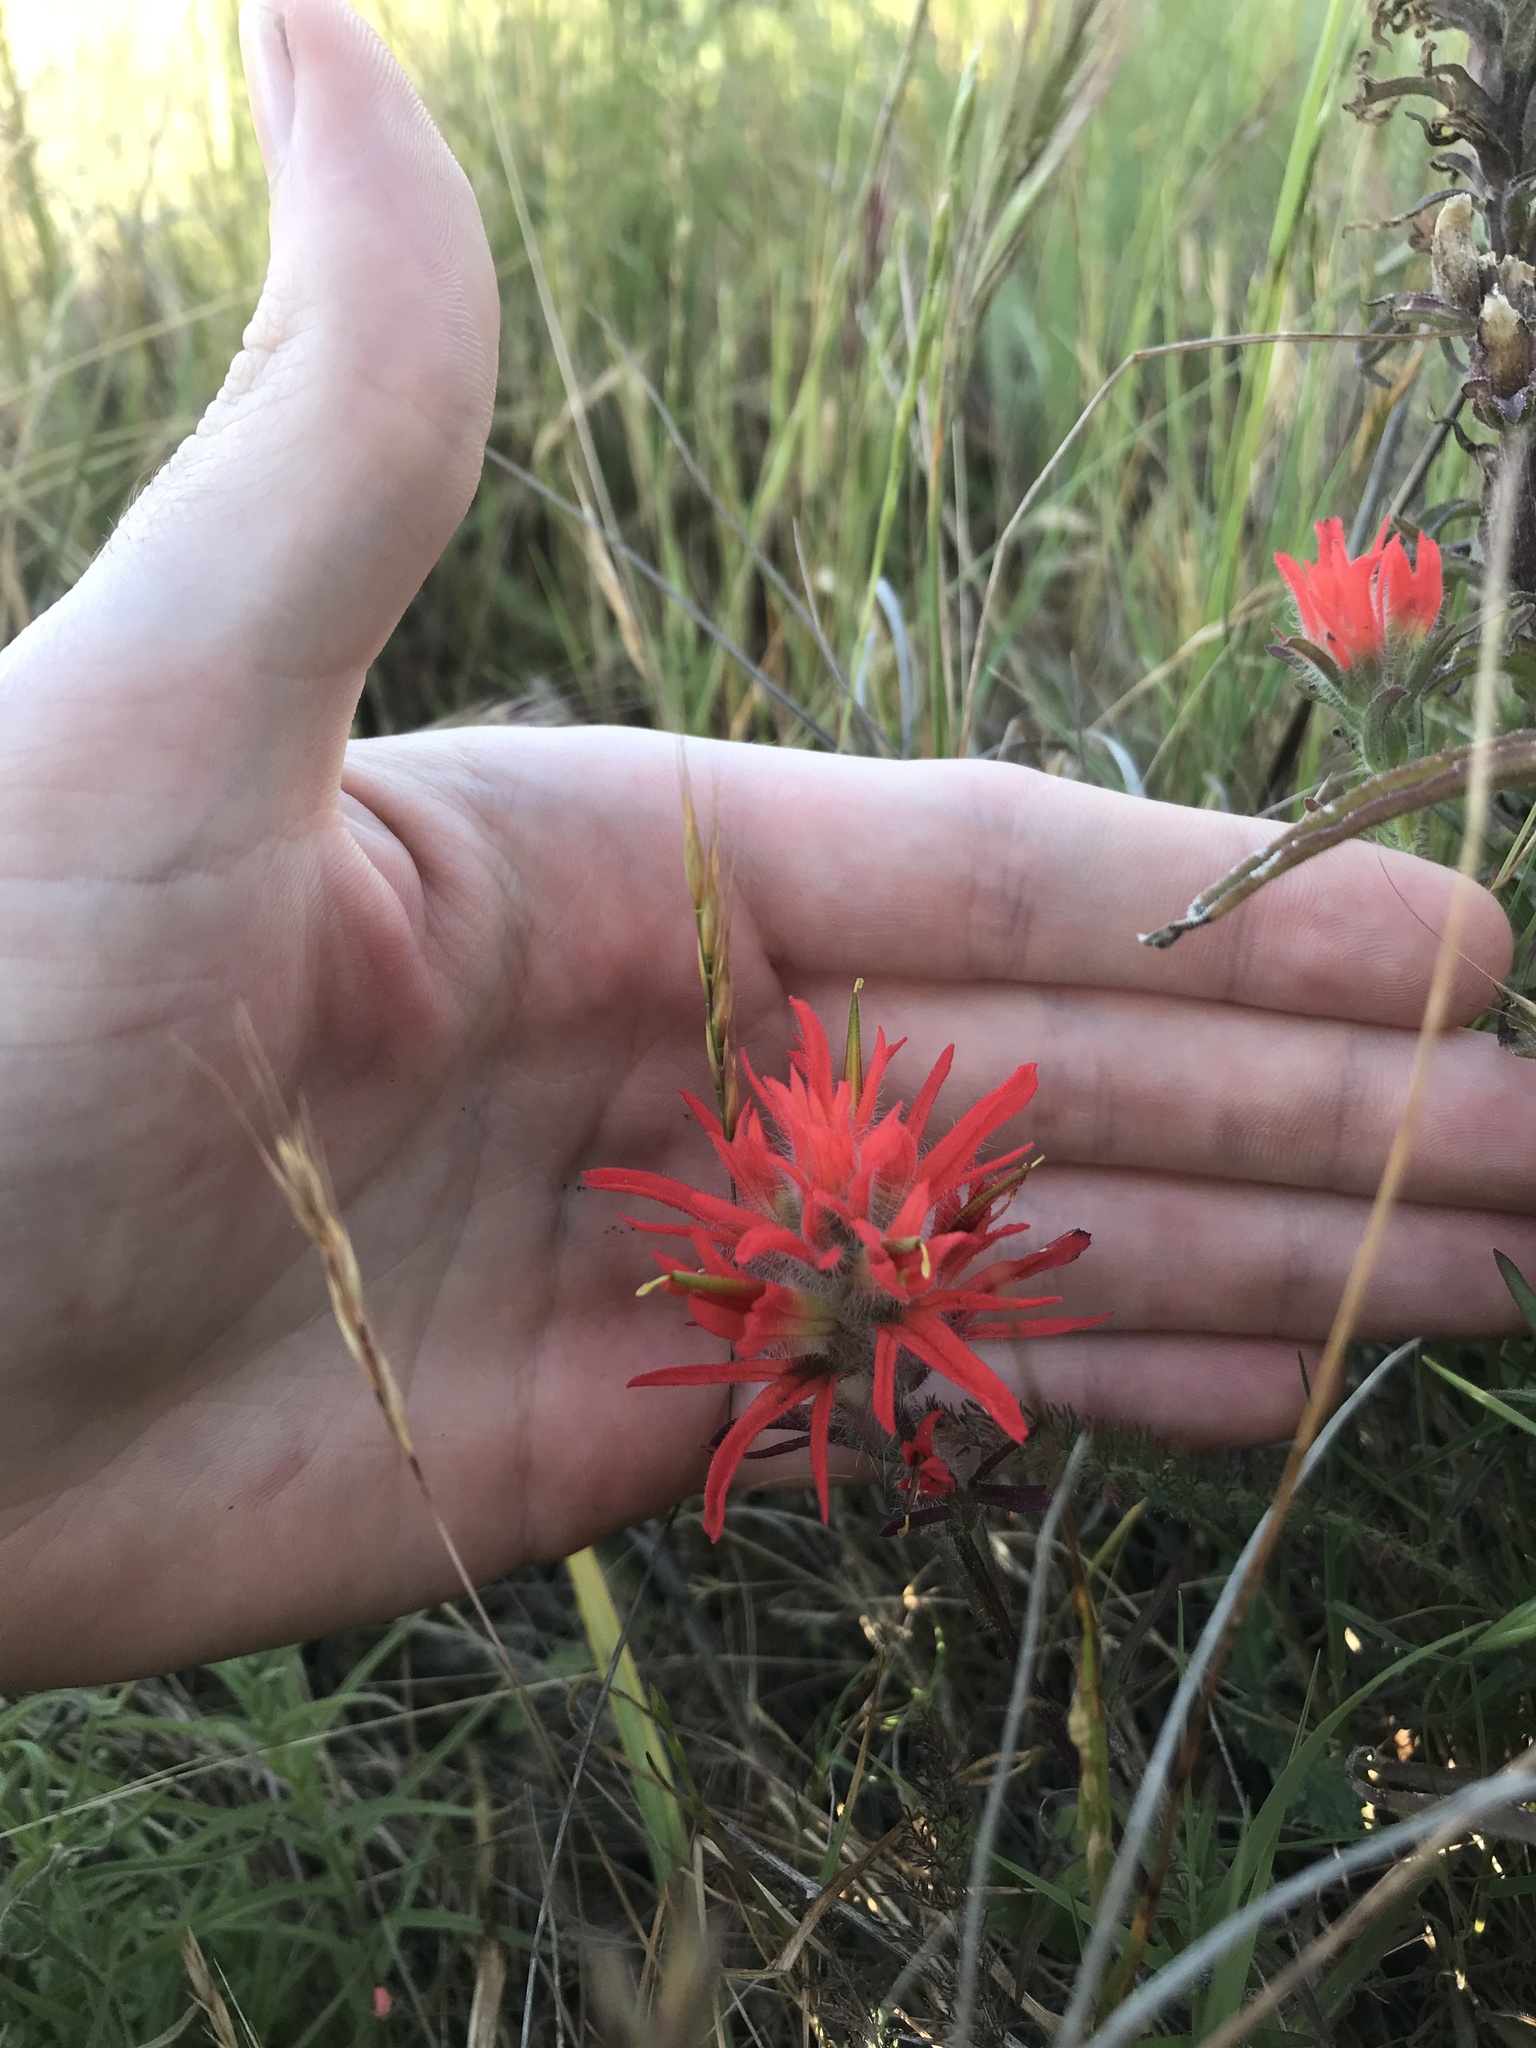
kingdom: Plantae
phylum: Tracheophyta
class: Magnoliopsida
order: Lamiales
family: Orobanchaceae
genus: Castilleja
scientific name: Castilleja affinis
